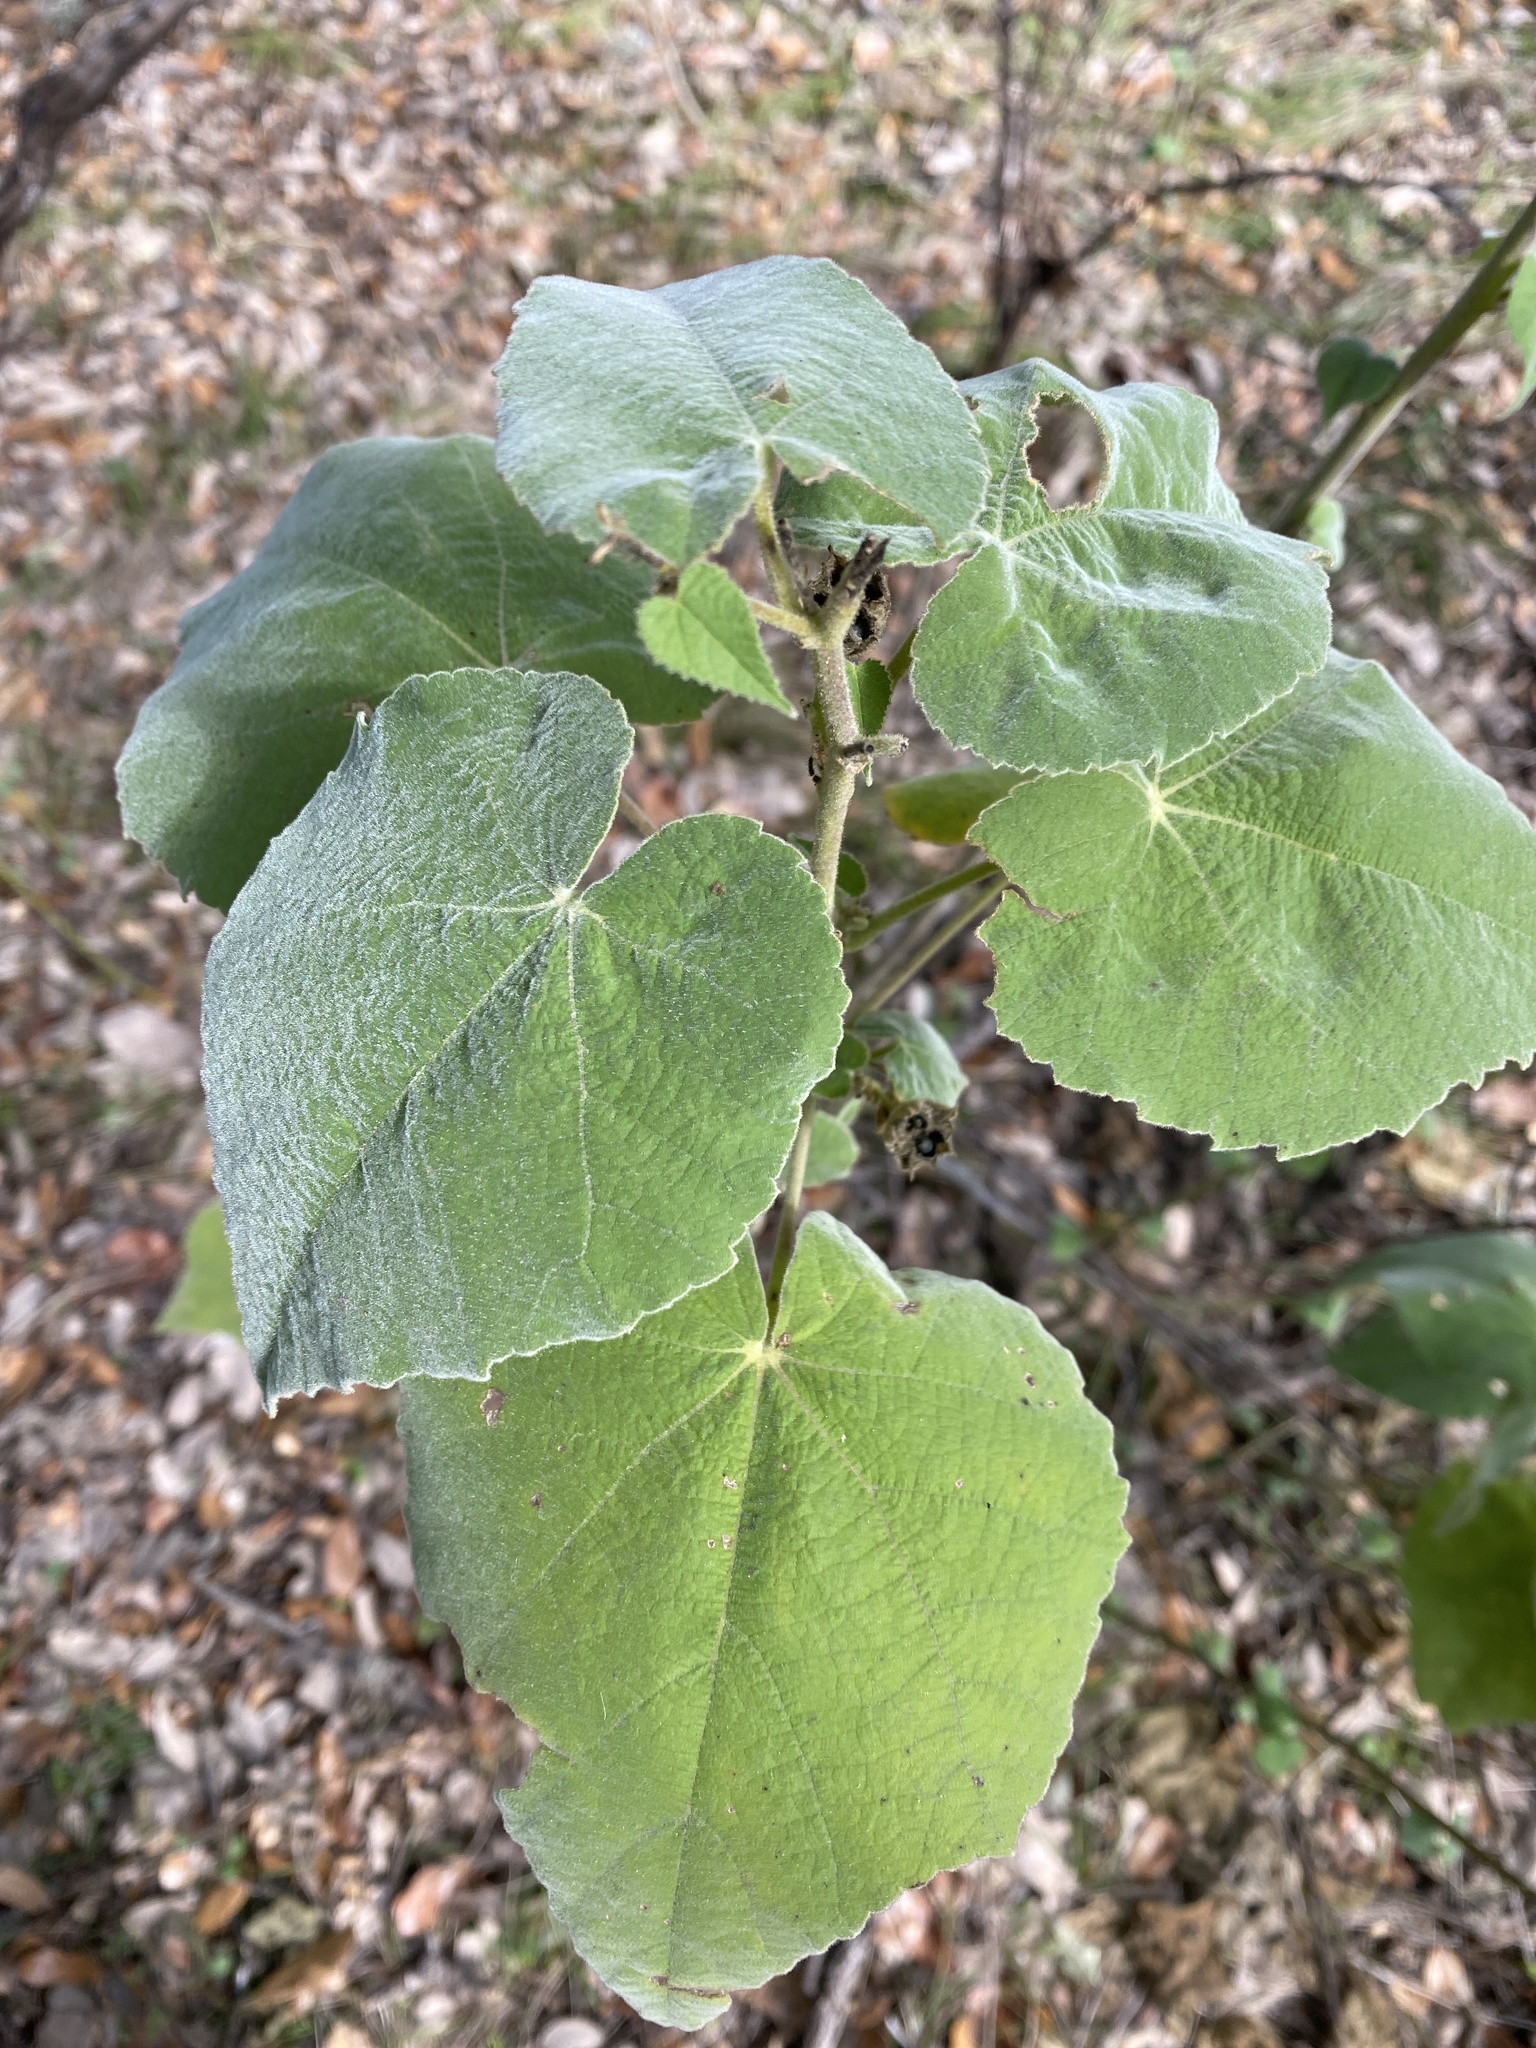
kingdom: Plantae
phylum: Tracheophyta
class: Magnoliopsida
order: Malvales
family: Malvaceae
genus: Allowissadula
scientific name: Allowissadula holosericea
